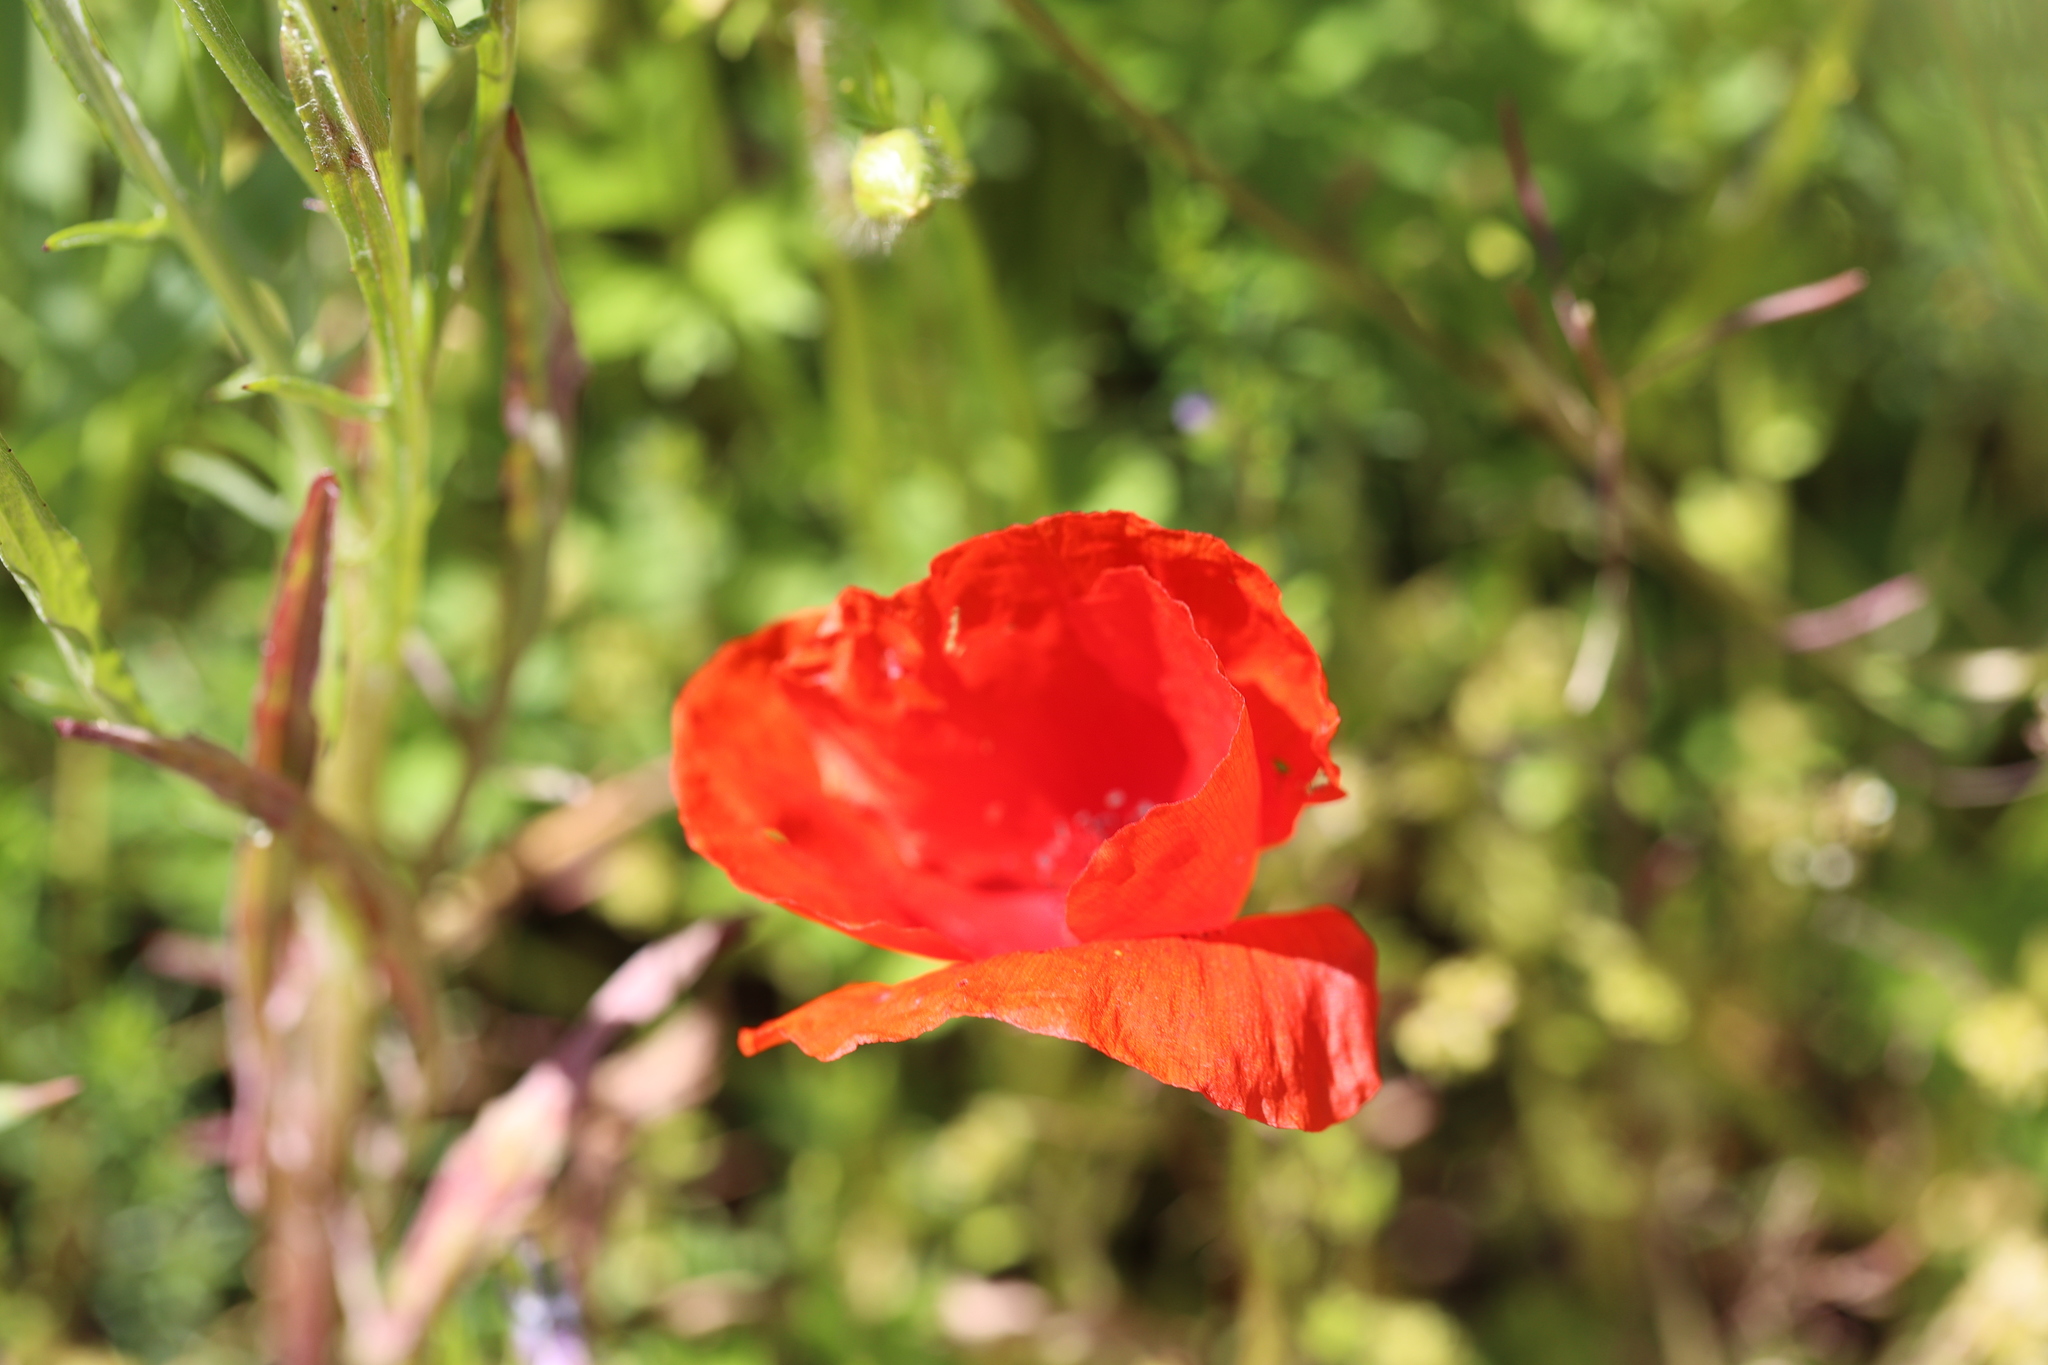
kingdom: Plantae
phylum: Tracheophyta
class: Magnoliopsida
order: Ranunculales
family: Papaveraceae
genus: Papaver
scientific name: Papaver rhoeas
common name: Corn poppy
